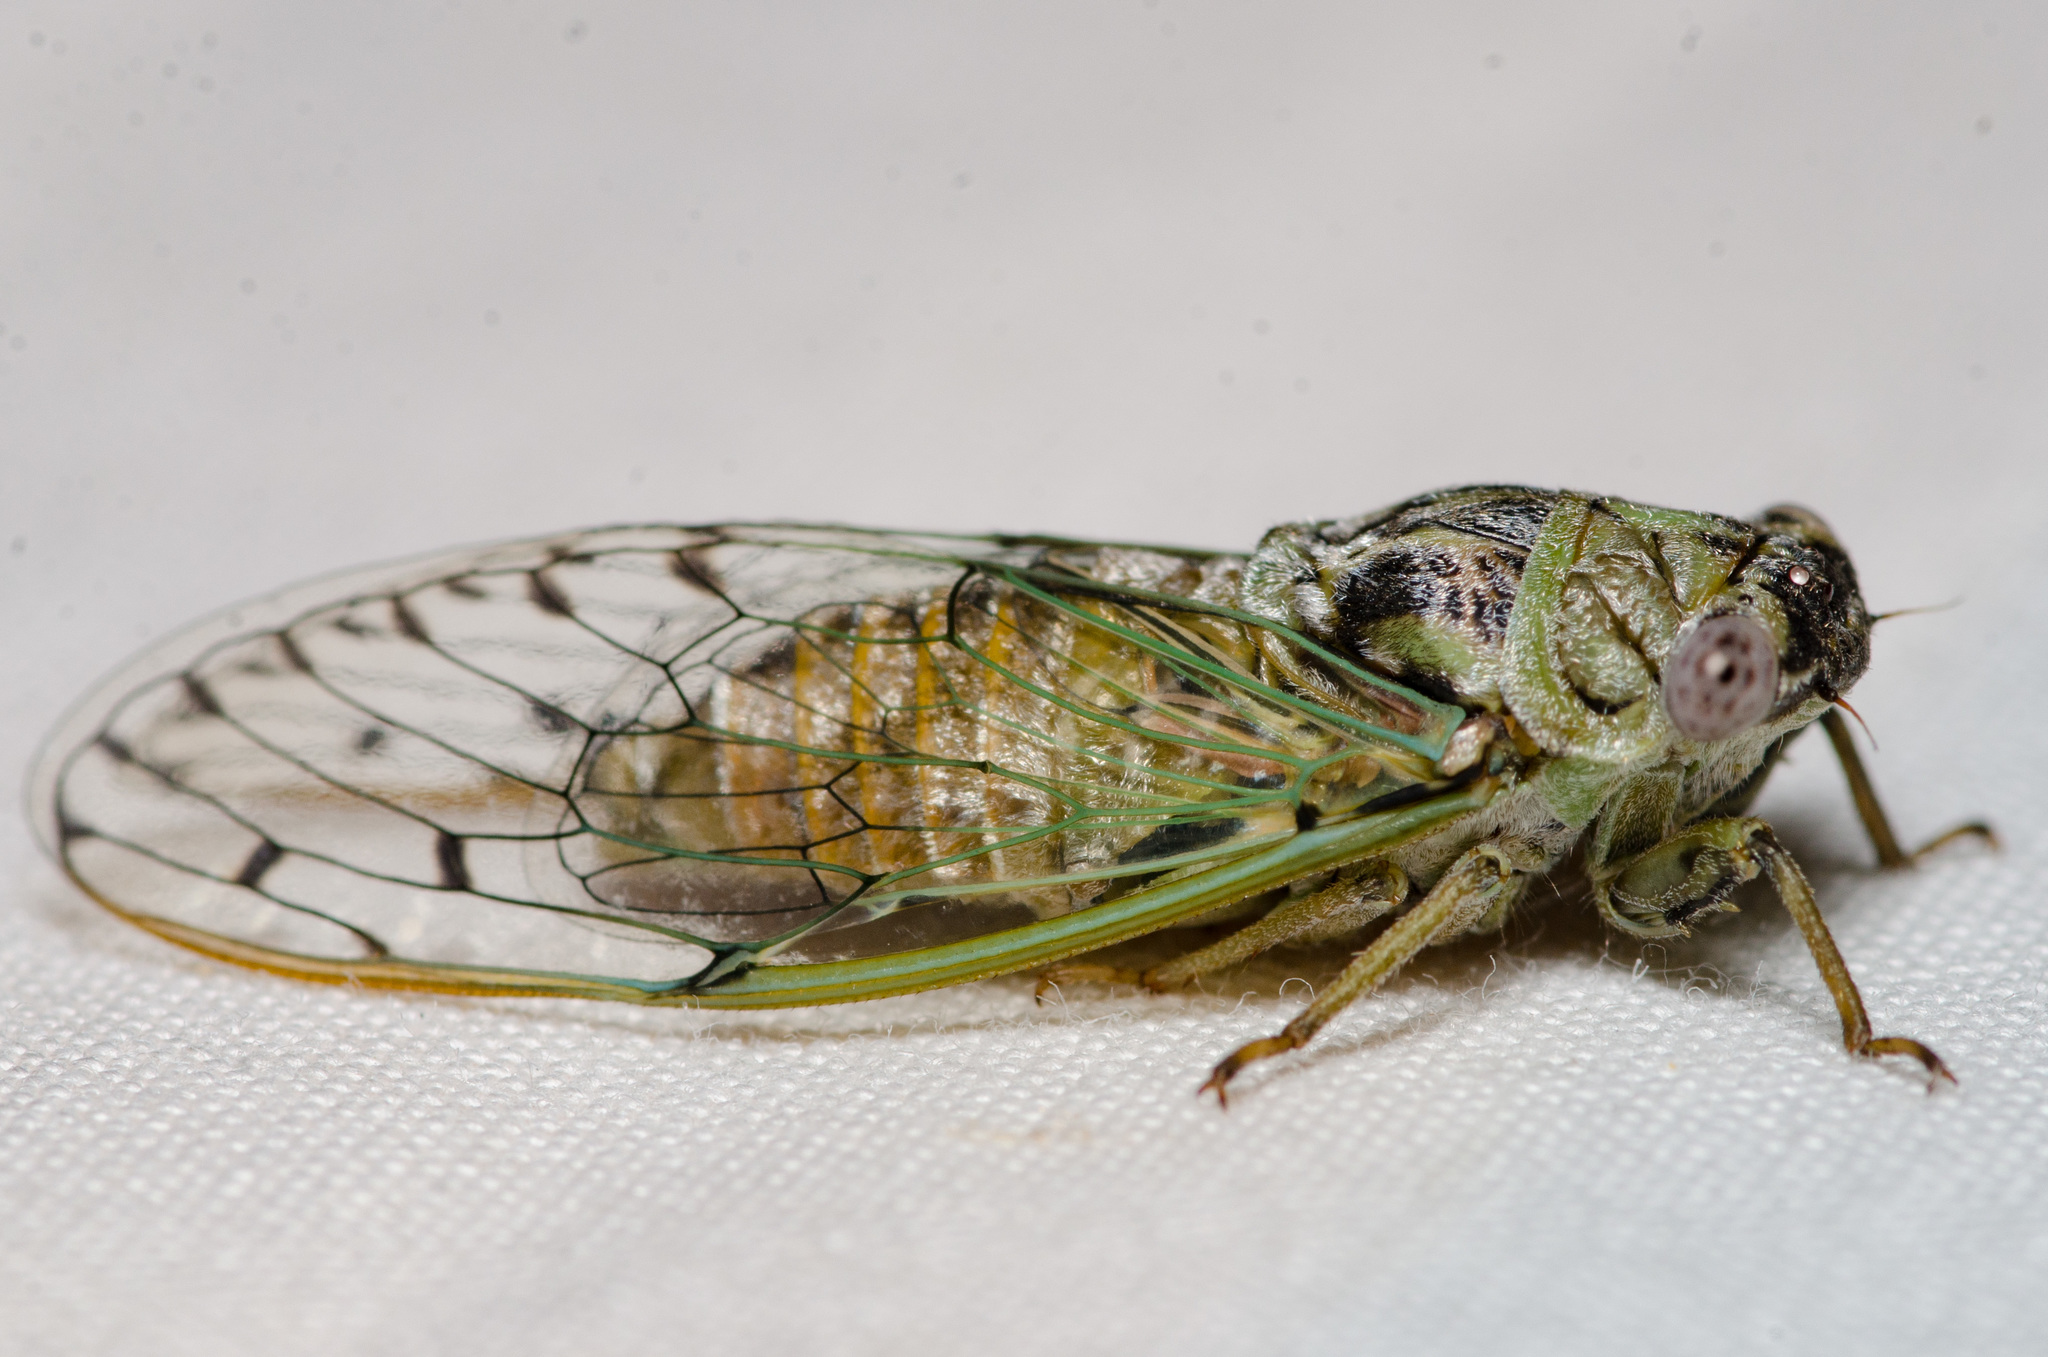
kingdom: Animalia
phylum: Arthropoda
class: Insecta
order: Hemiptera
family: Cicadidae
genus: Pacarina
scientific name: Pacarina puella
